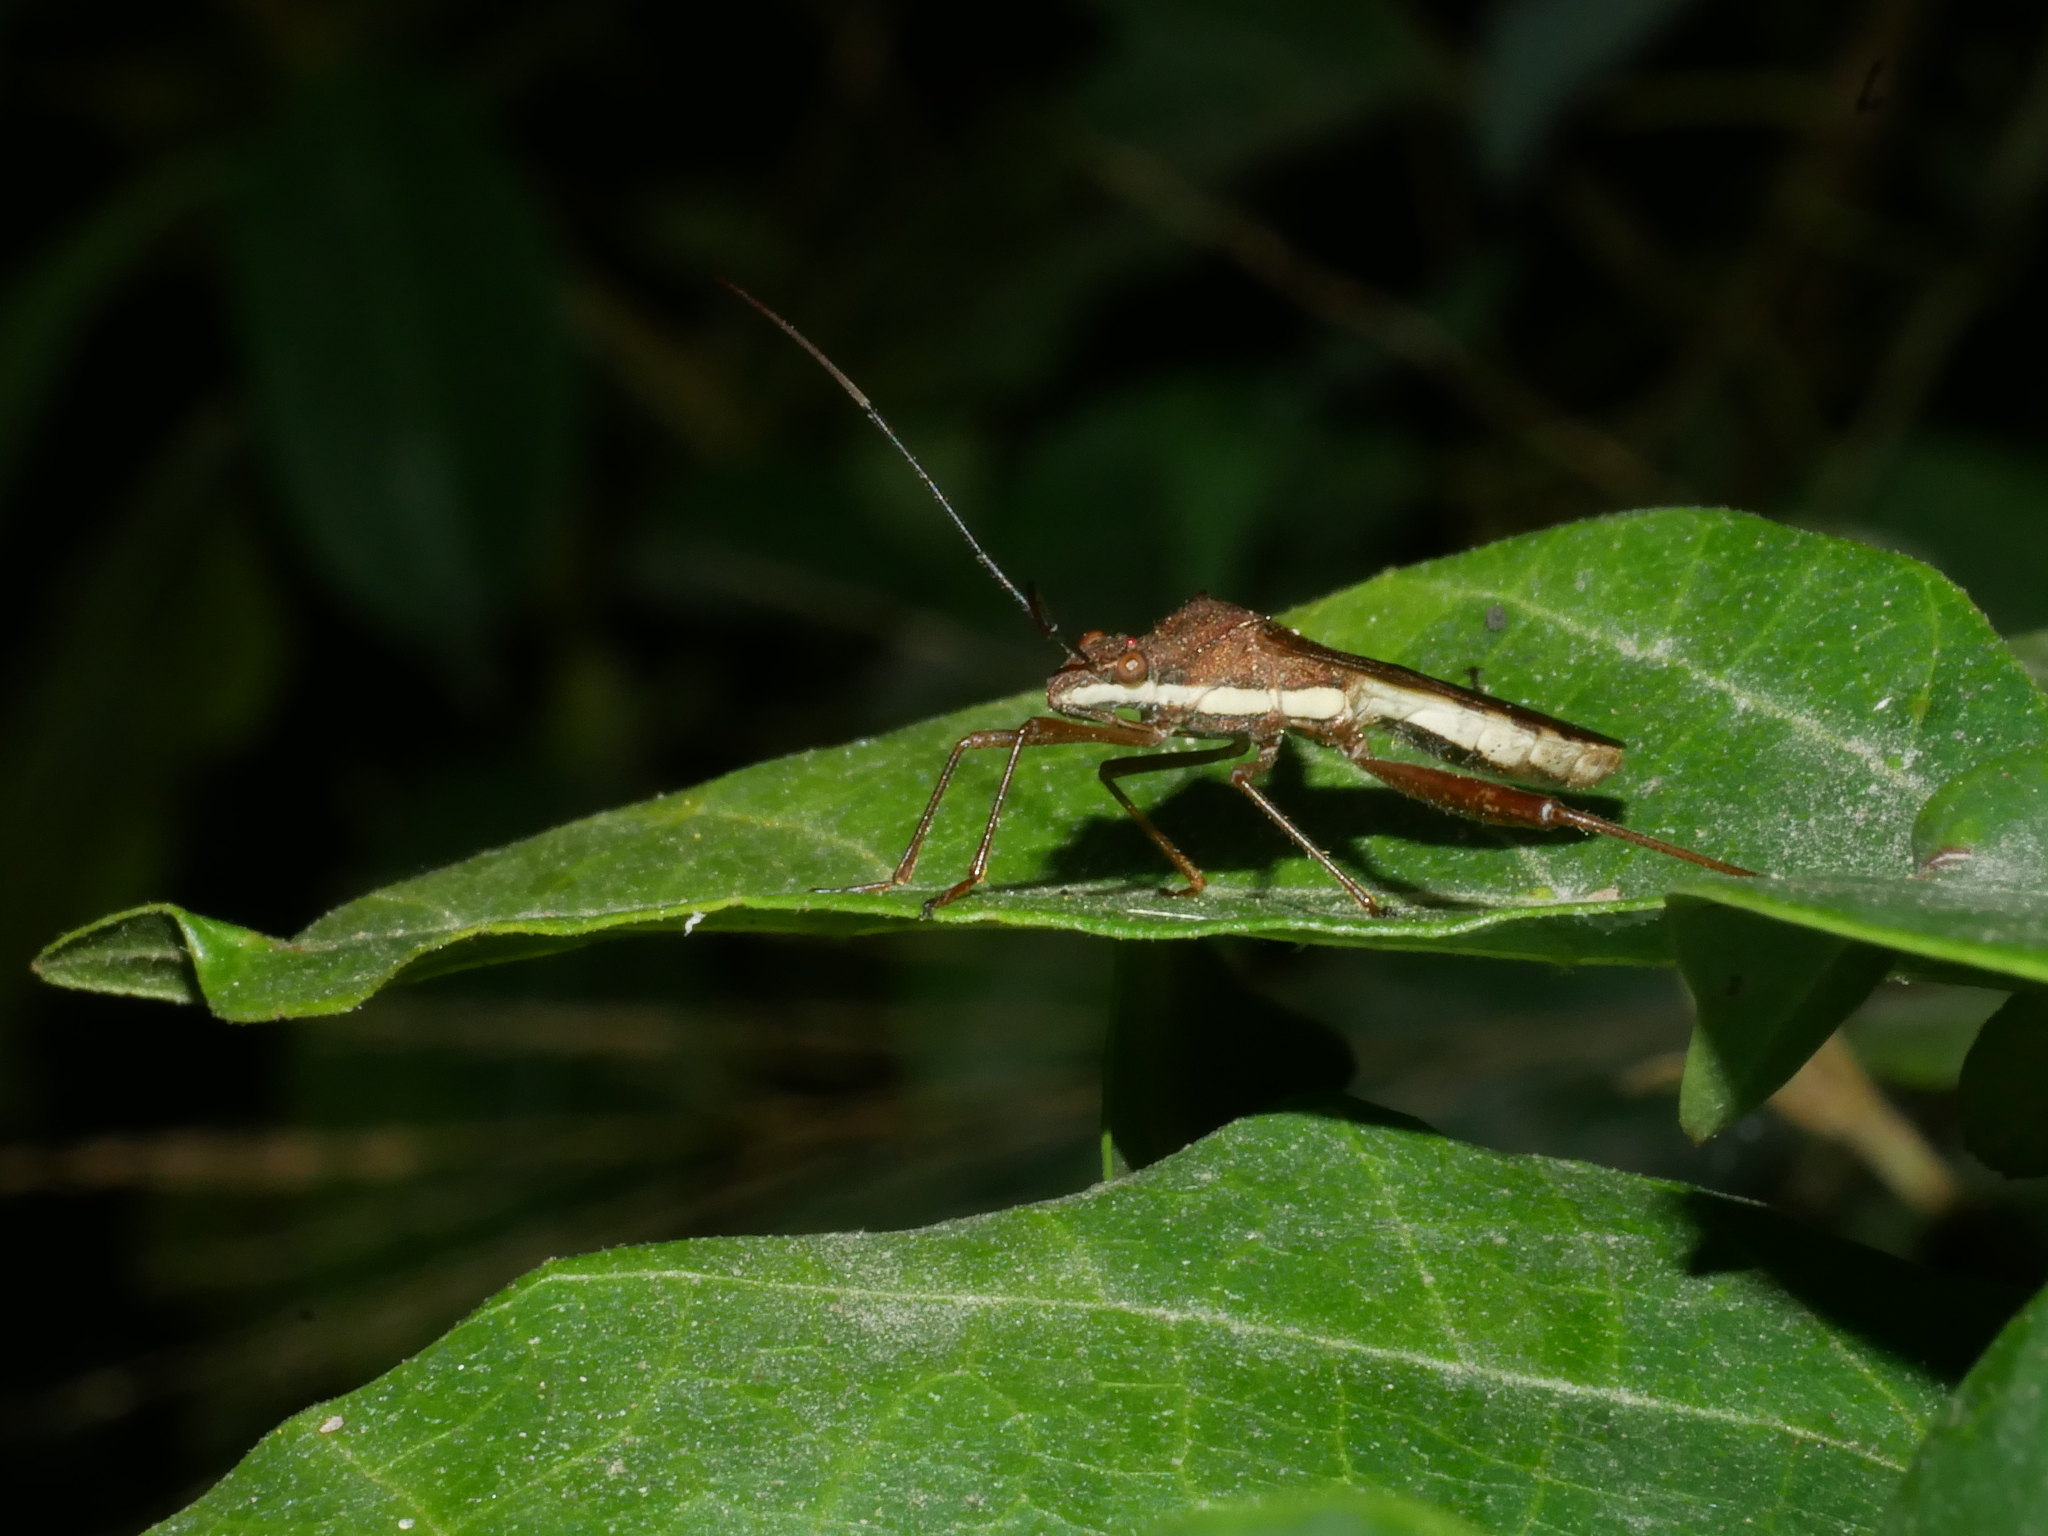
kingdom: Animalia
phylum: Arthropoda
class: Insecta
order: Hemiptera
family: Alydidae
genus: Riptortus
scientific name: Riptortus linearis
